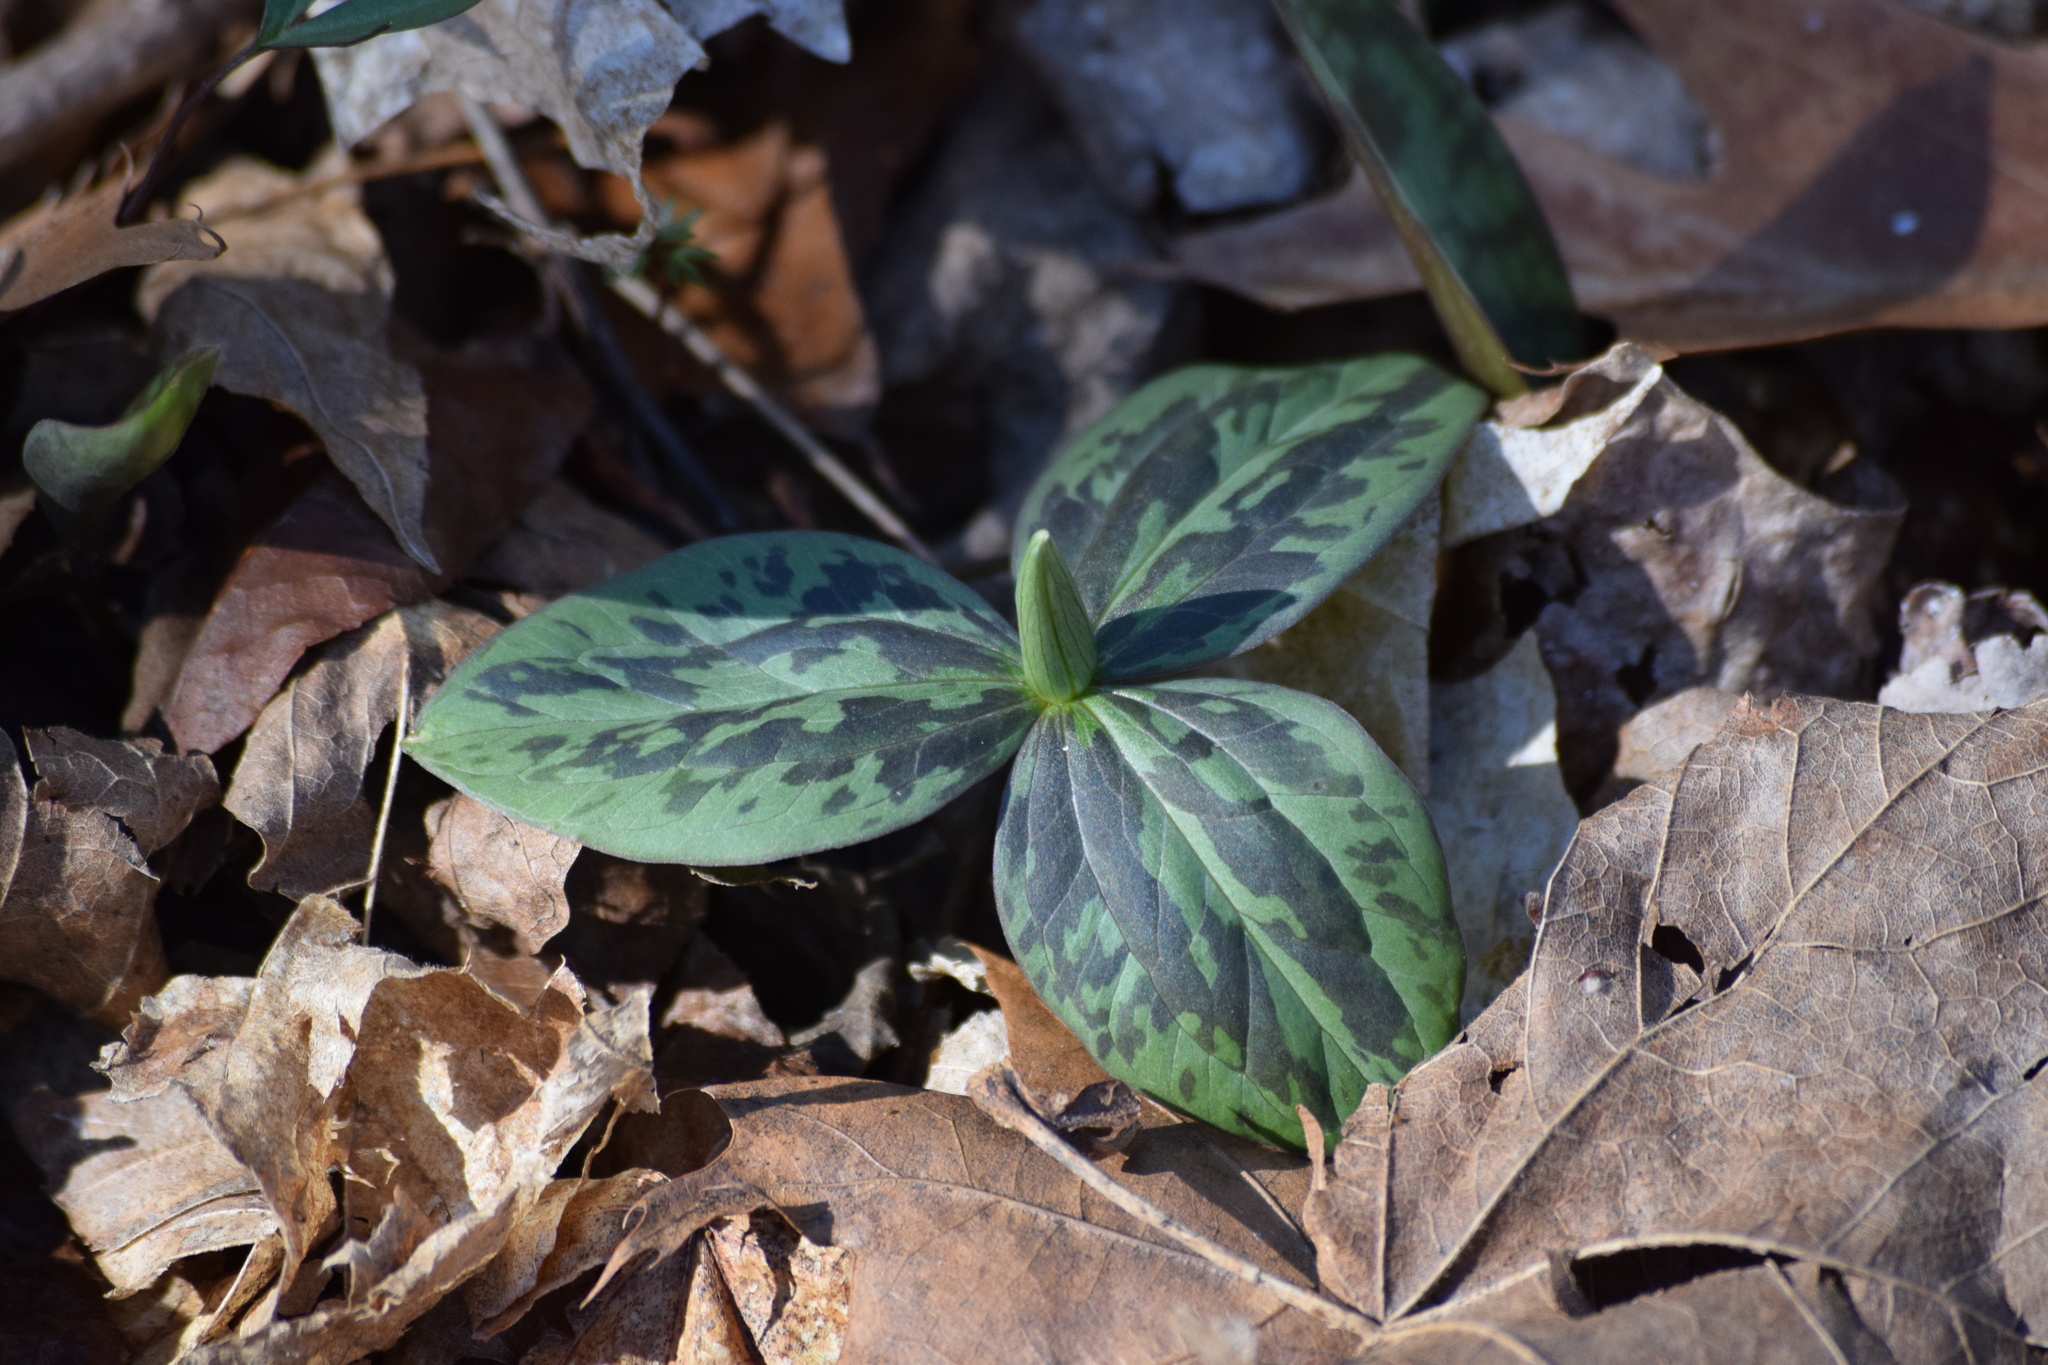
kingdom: Plantae
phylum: Tracheophyta
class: Liliopsida
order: Liliales
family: Melanthiaceae
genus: Trillium
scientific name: Trillium sessile
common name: Sessile trillium
